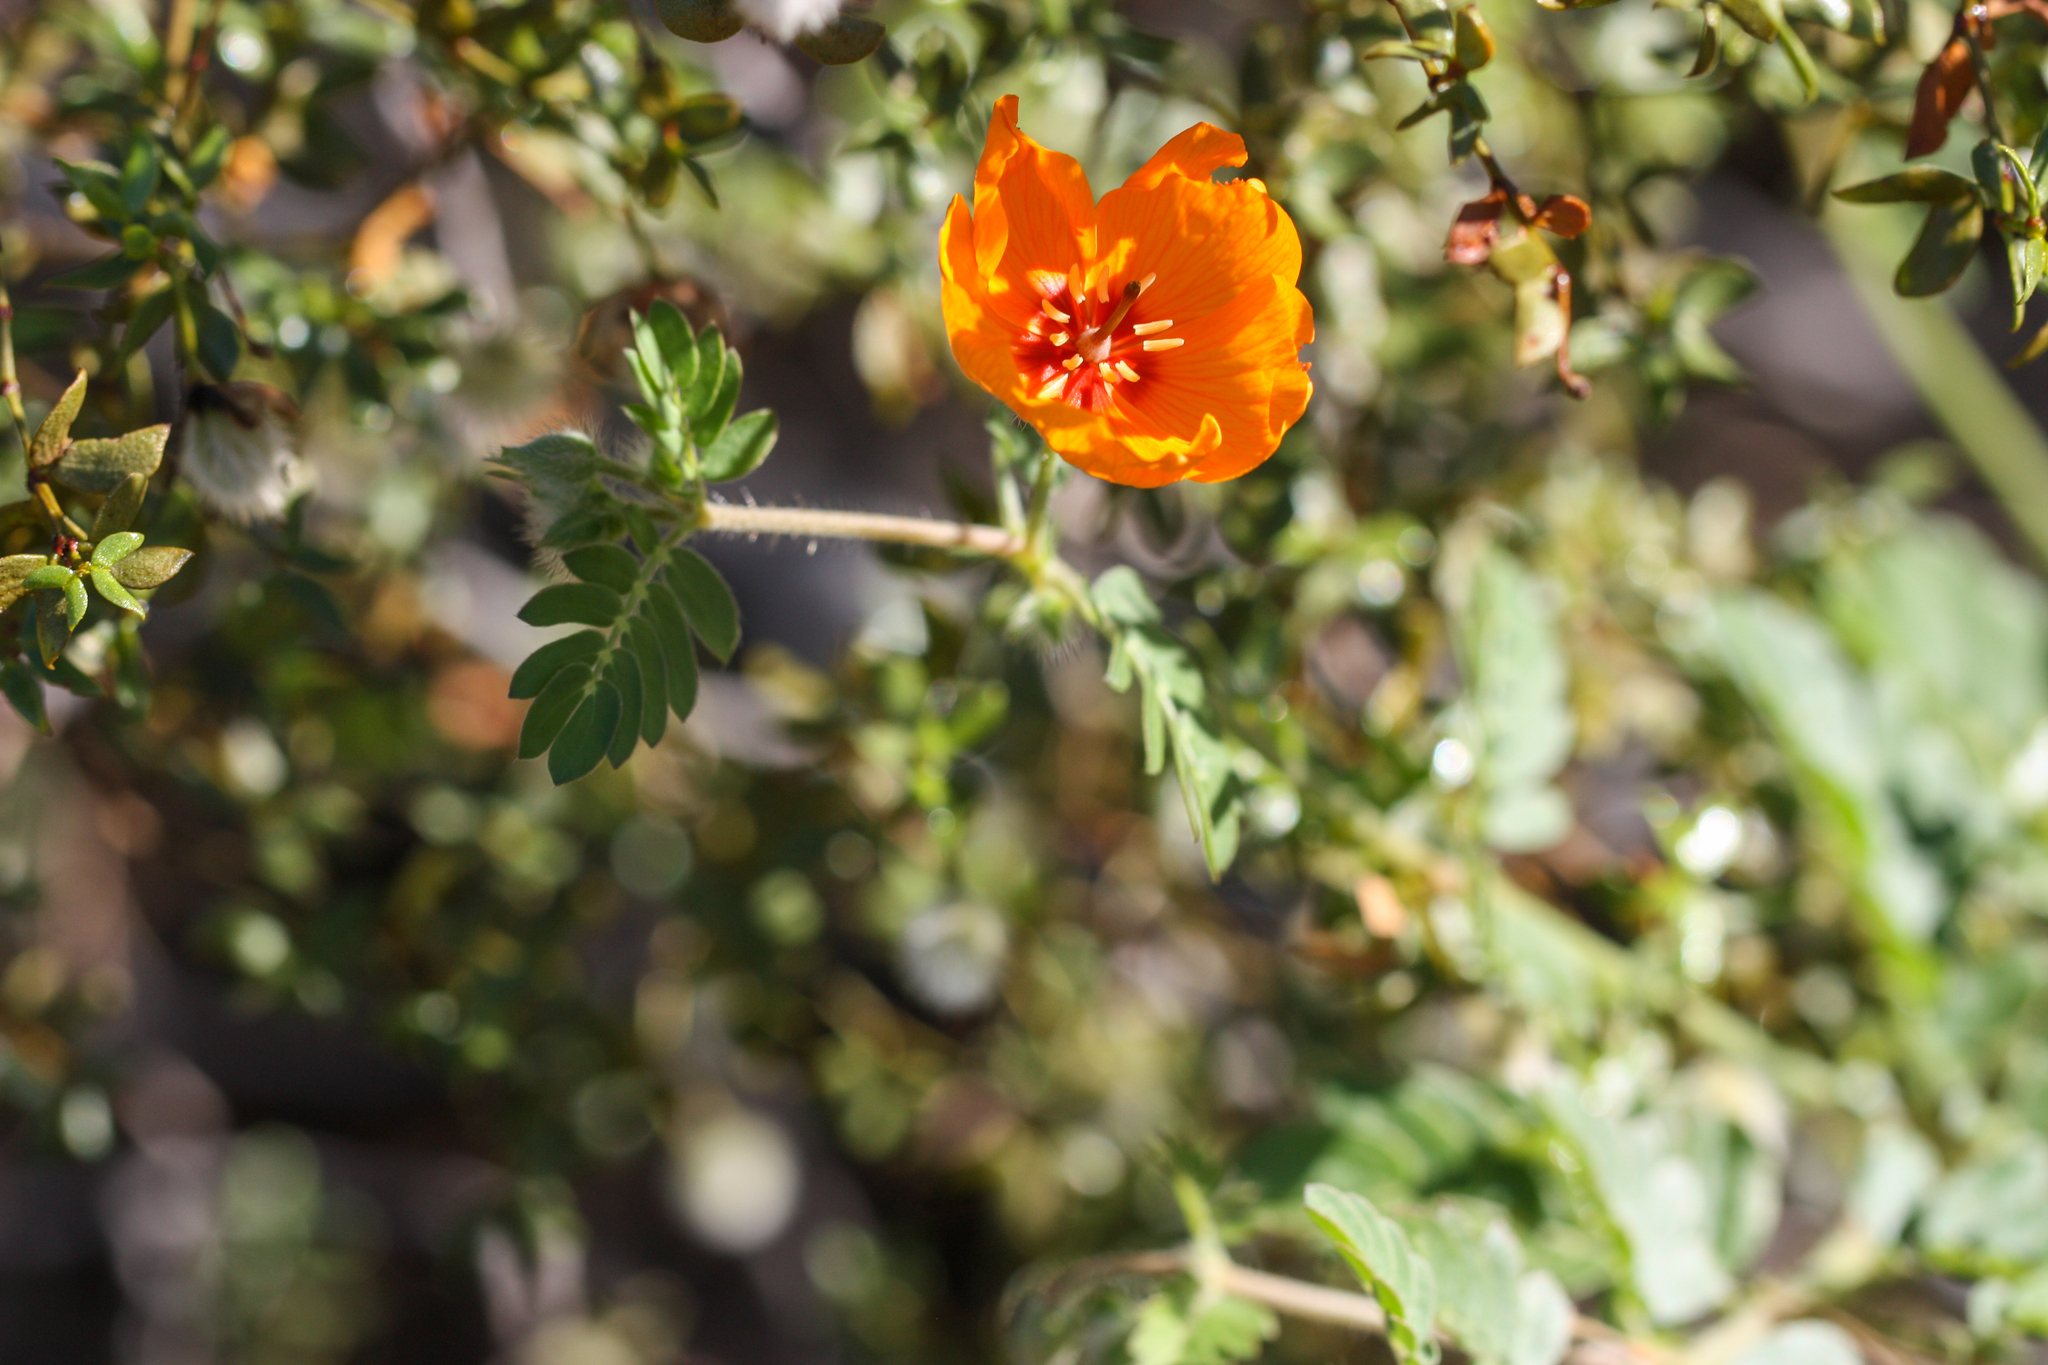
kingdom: Plantae
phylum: Tracheophyta
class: Magnoliopsida
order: Zygophyllales
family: Zygophyllaceae
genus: Kallstroemia
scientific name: Kallstroemia grandiflora
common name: Arizona-poppy
